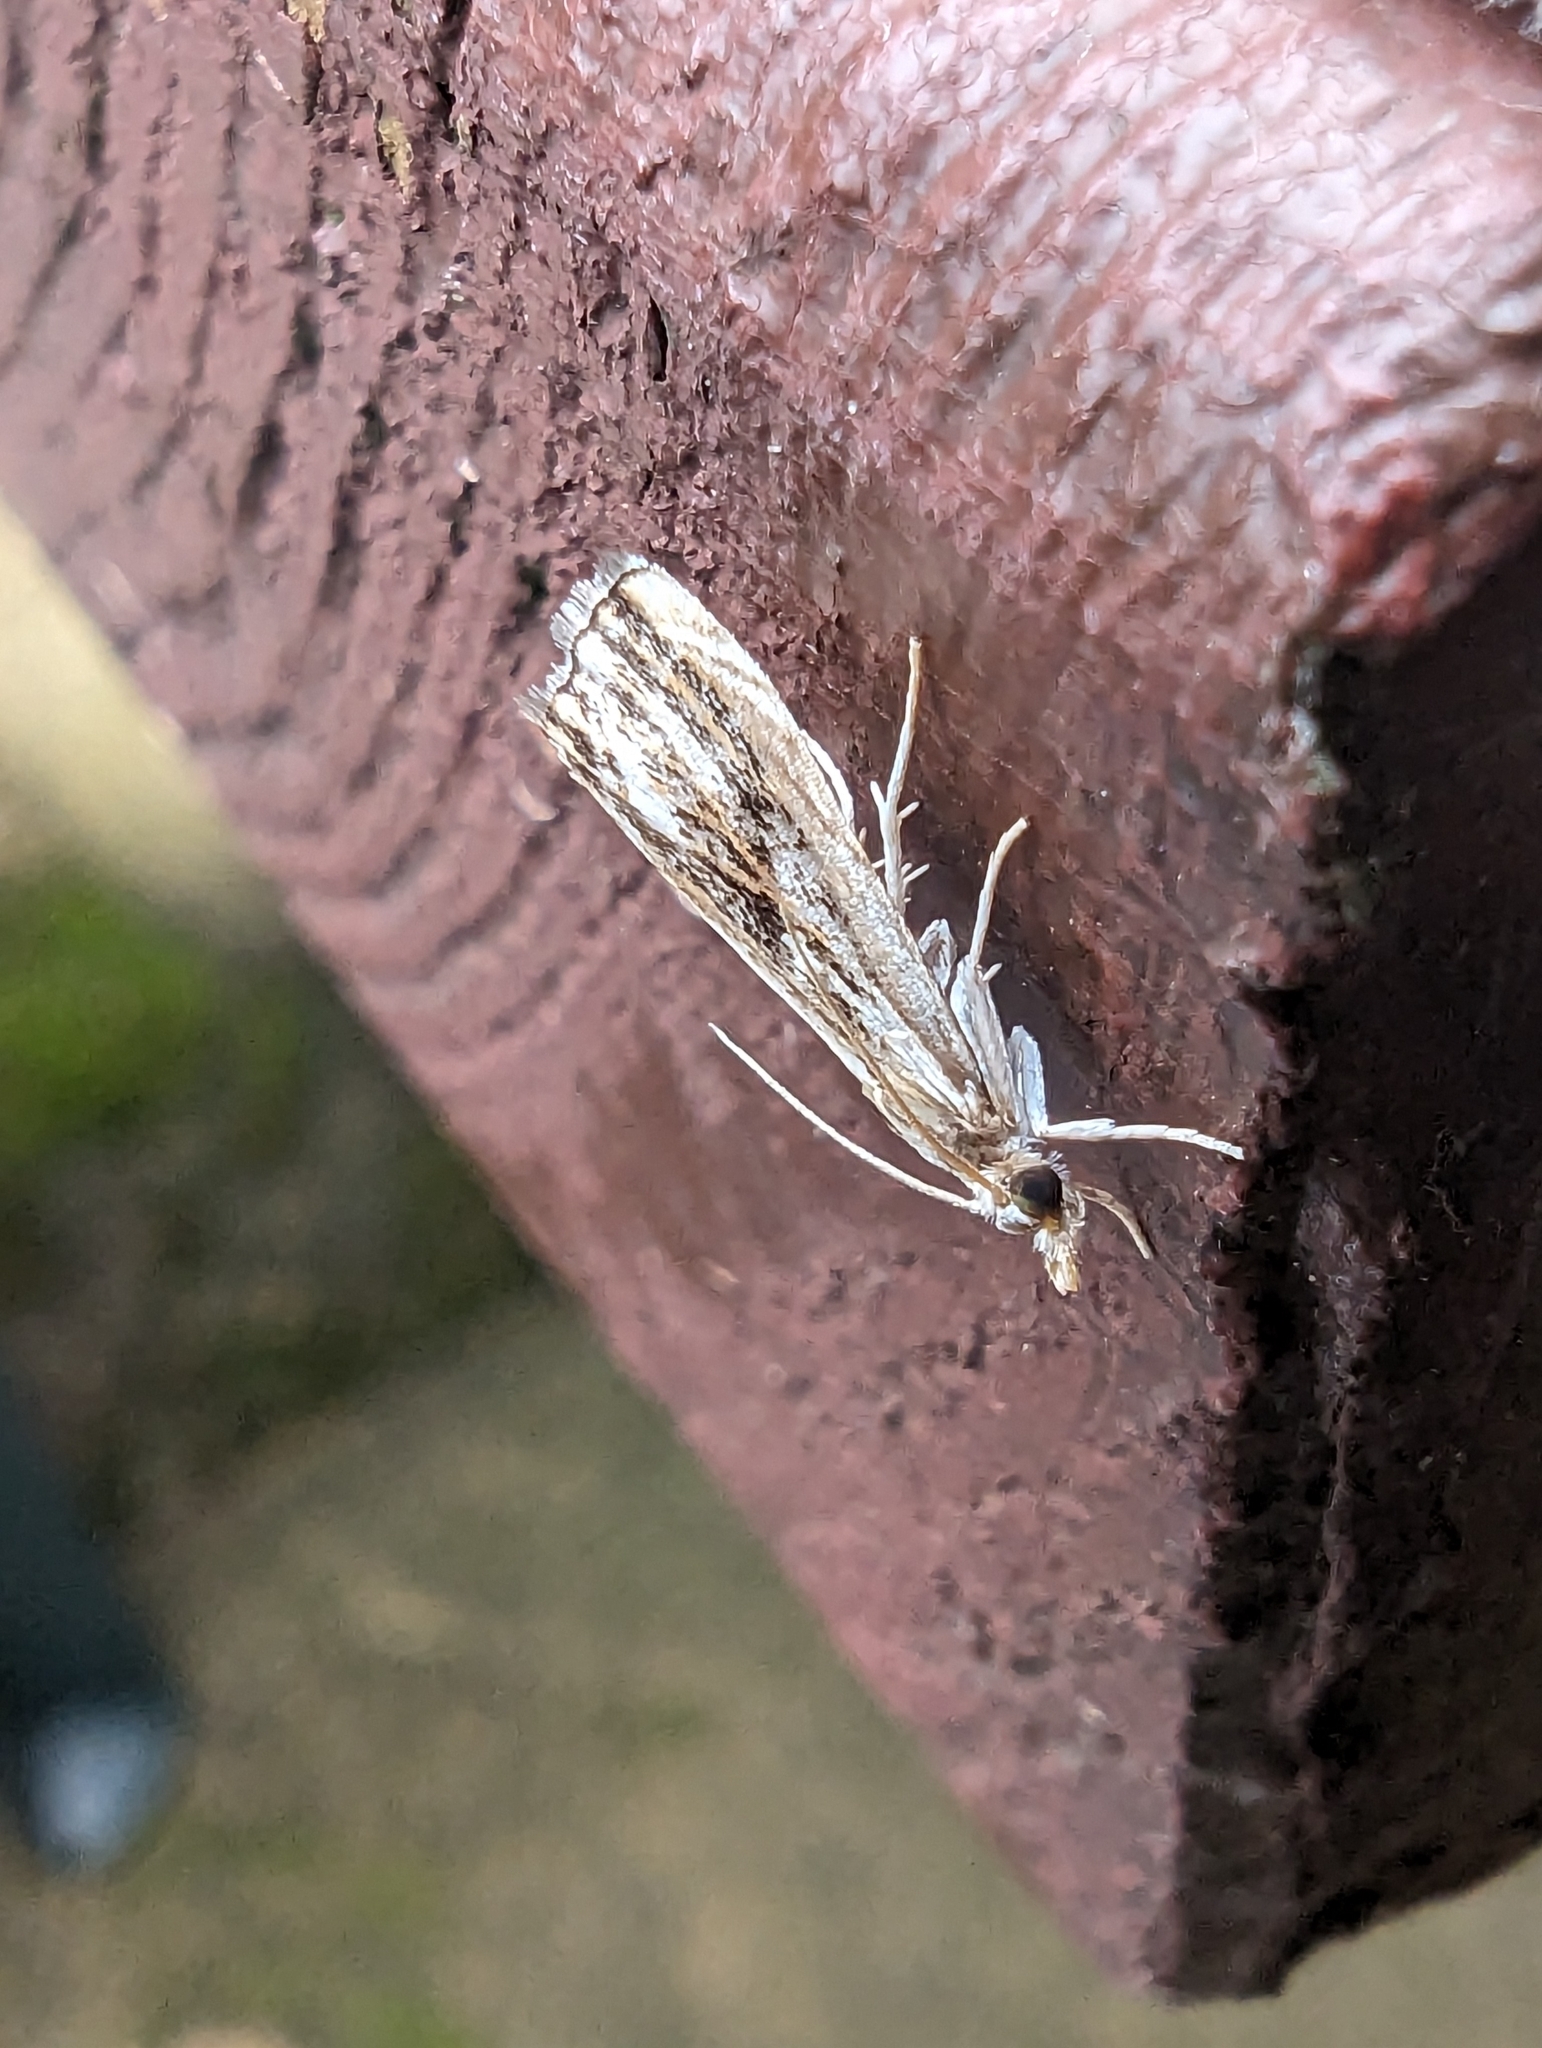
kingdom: Animalia
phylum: Arthropoda
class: Insecta
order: Lepidoptera
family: Crambidae
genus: Catoptria
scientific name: Catoptria verellus
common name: Marbled grass-veneer
